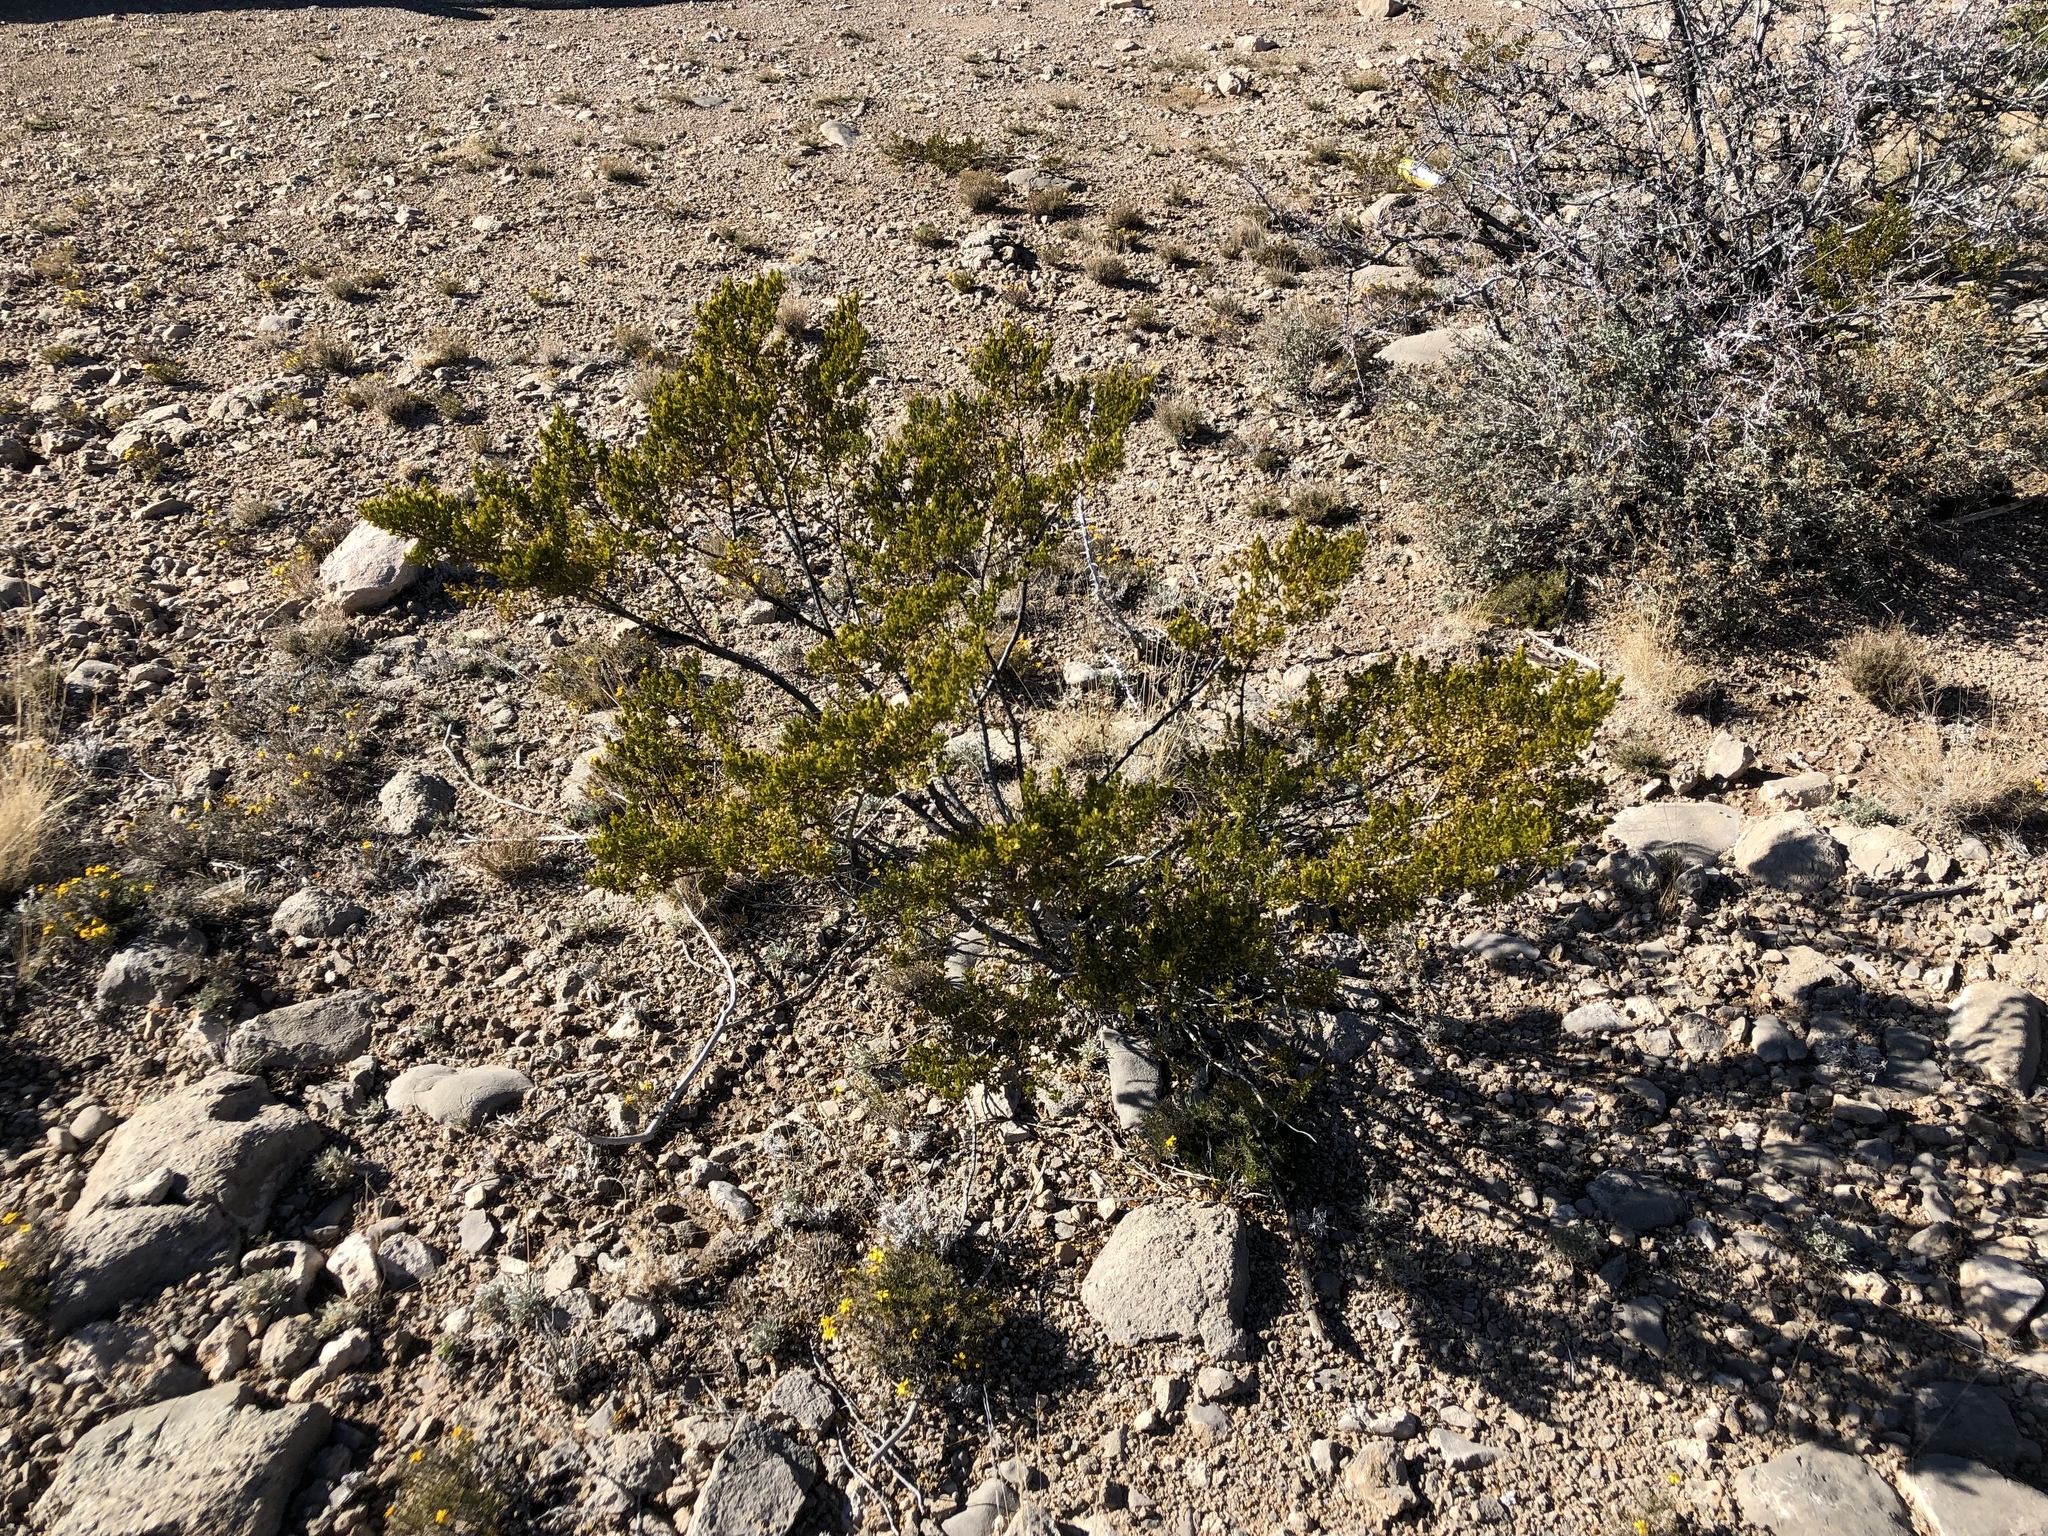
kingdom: Plantae
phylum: Tracheophyta
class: Magnoliopsida
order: Zygophyllales
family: Zygophyllaceae
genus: Larrea
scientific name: Larrea tridentata
